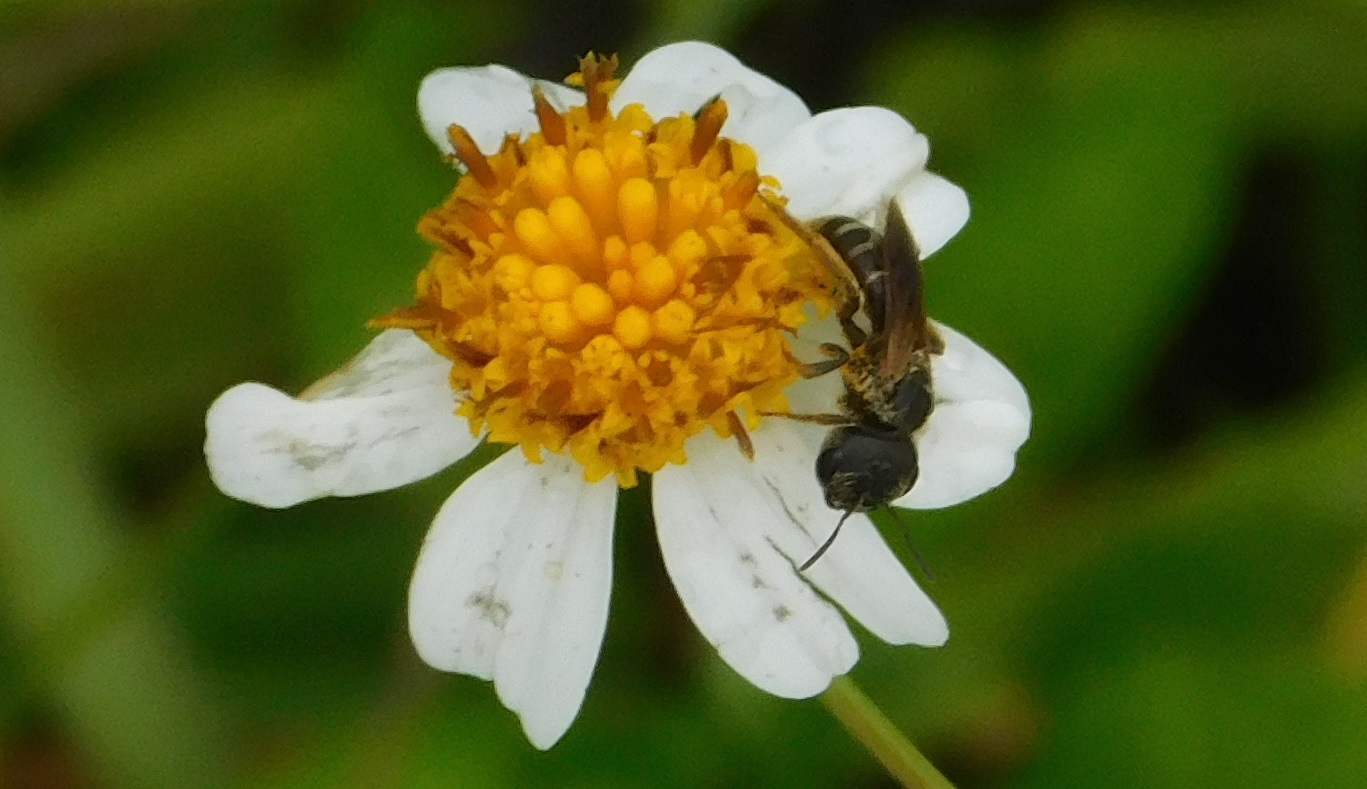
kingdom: Animalia
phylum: Arthropoda
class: Insecta
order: Hymenoptera
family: Halictidae
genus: Halictus
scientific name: Halictus poeyi
